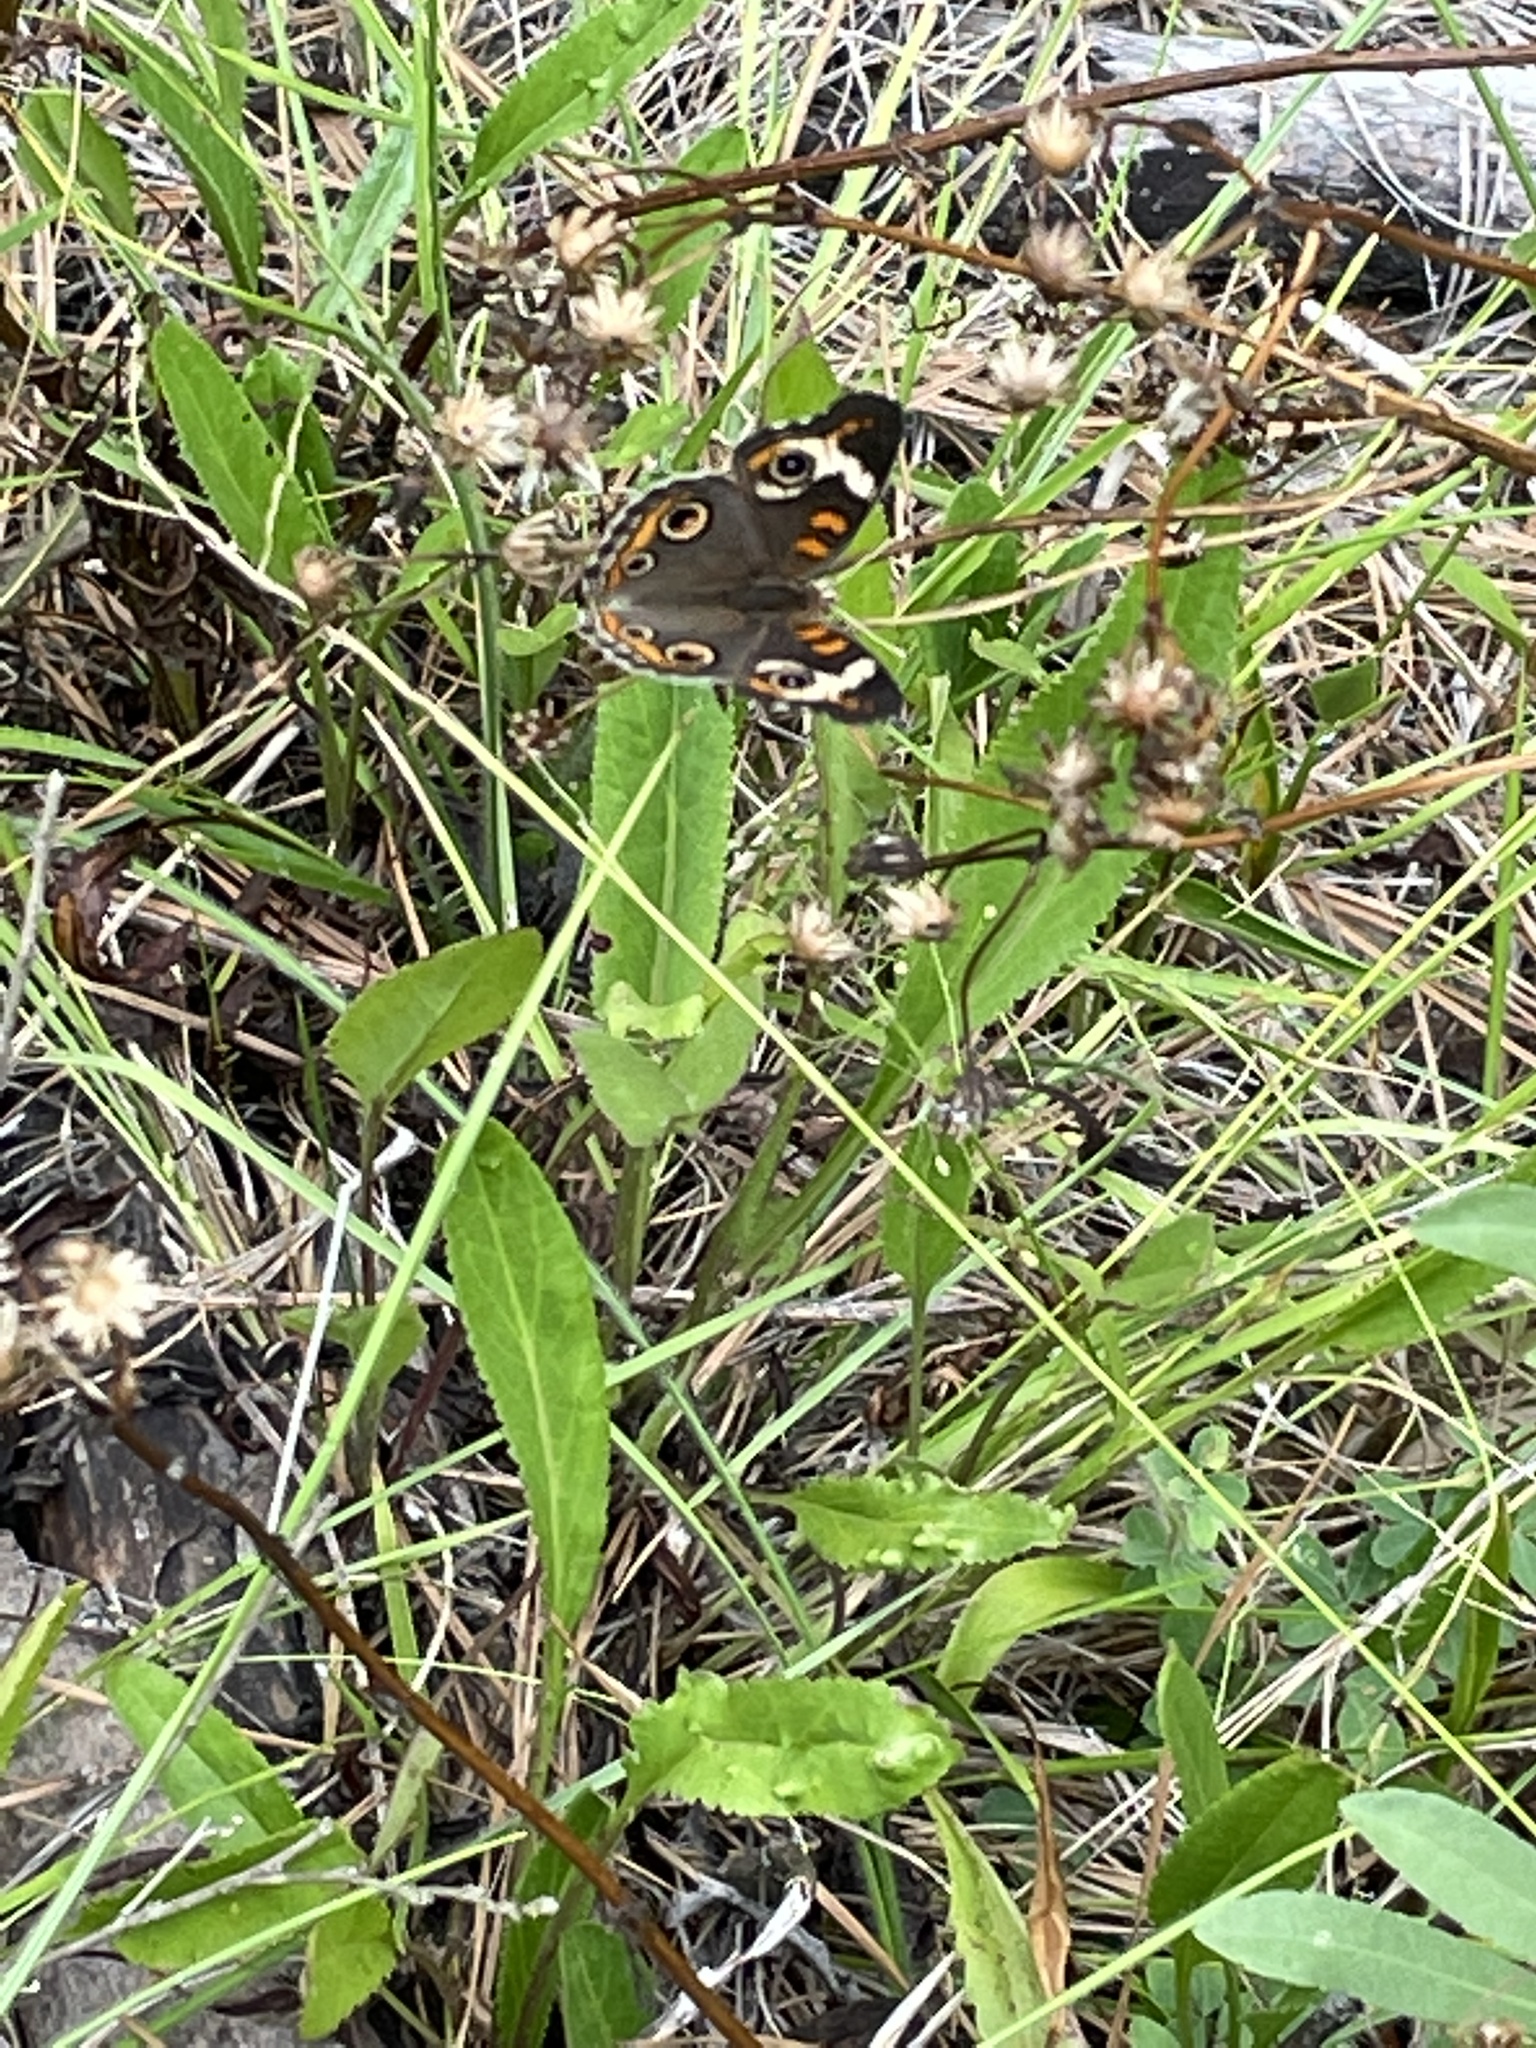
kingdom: Animalia
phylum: Arthropoda
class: Insecta
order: Lepidoptera
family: Nymphalidae
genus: Junonia
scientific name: Junonia coenia
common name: Common buckeye
